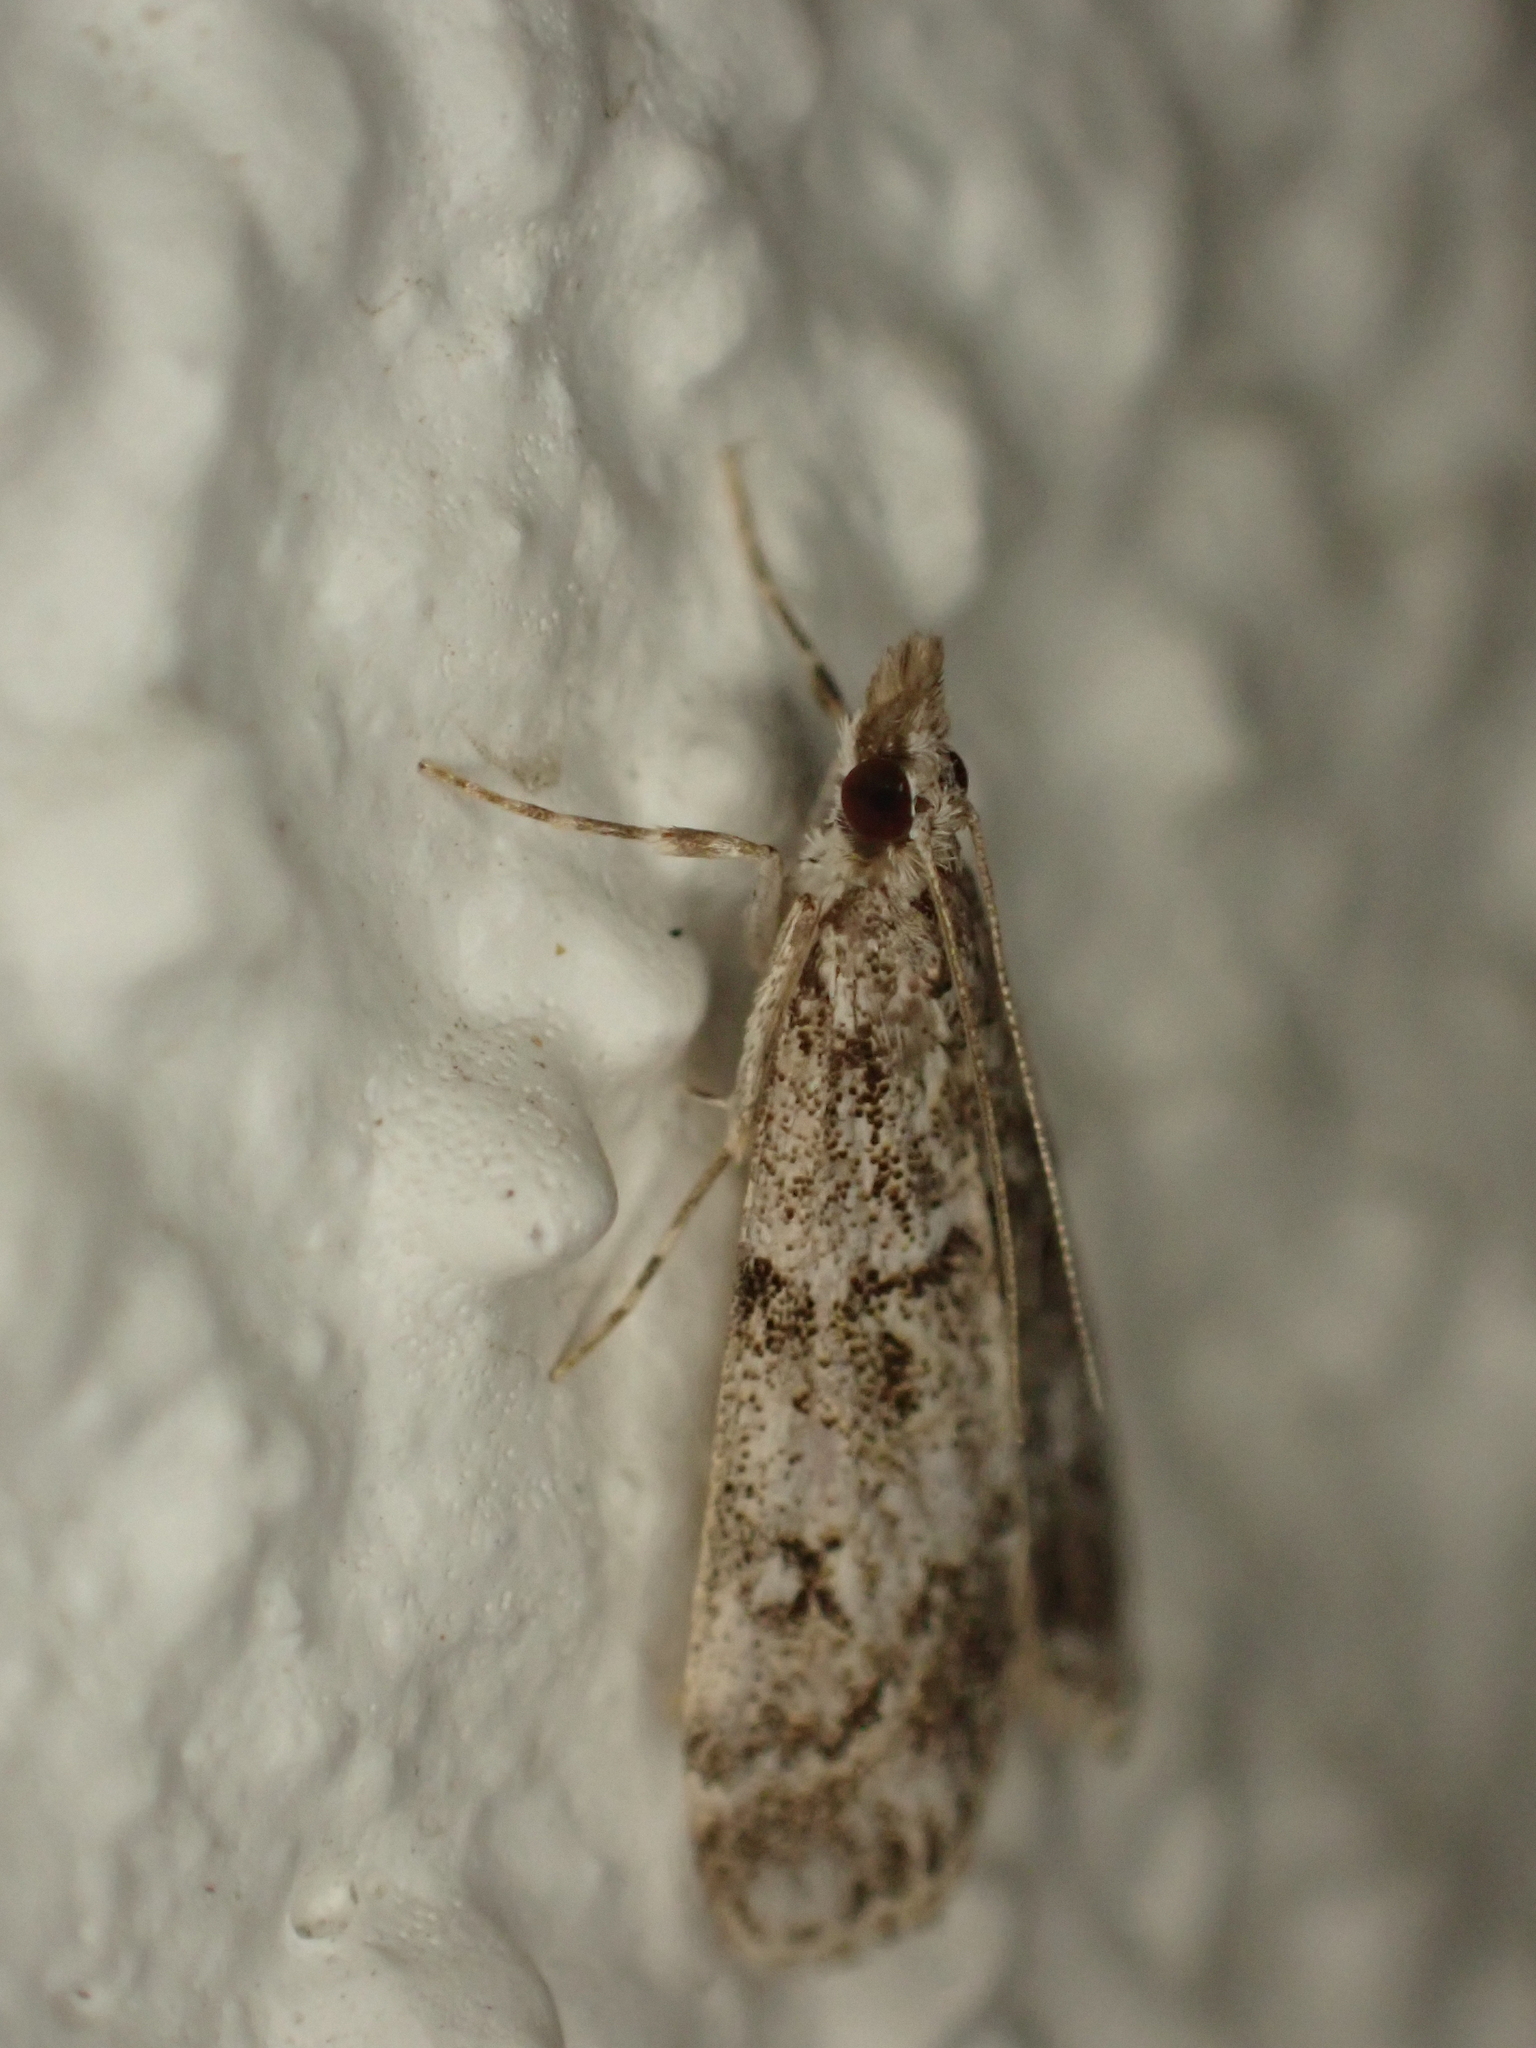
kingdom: Animalia
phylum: Arthropoda
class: Insecta
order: Lepidoptera
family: Crambidae
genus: Eudonia
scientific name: Eudonia lacustrata
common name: Little grey
